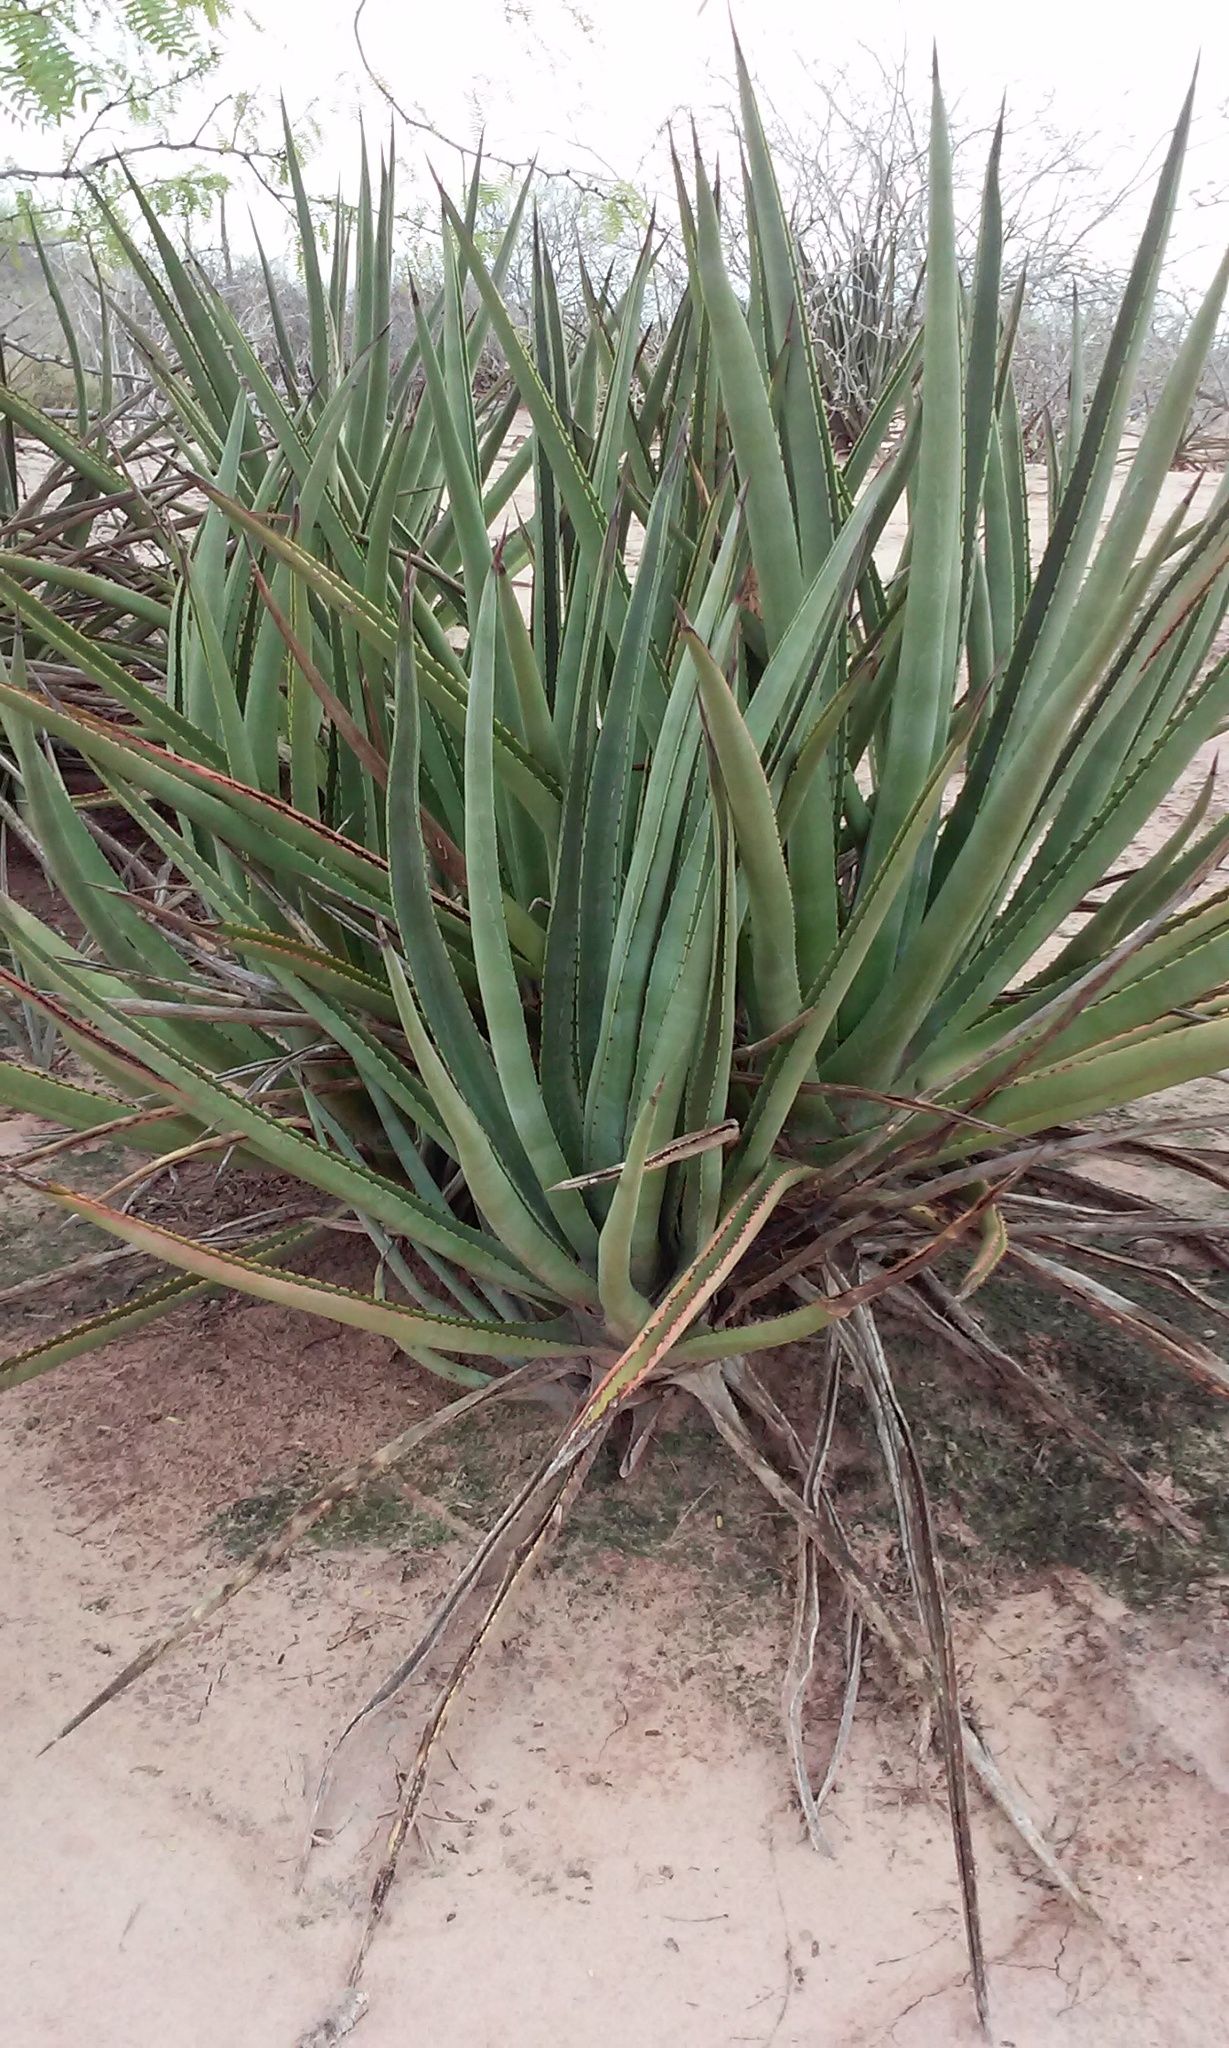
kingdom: Plantae
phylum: Tracheophyta
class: Liliopsida
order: Asparagales
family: Asparagaceae
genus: Agave
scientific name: Agave angustifolia
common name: Mescal agave
